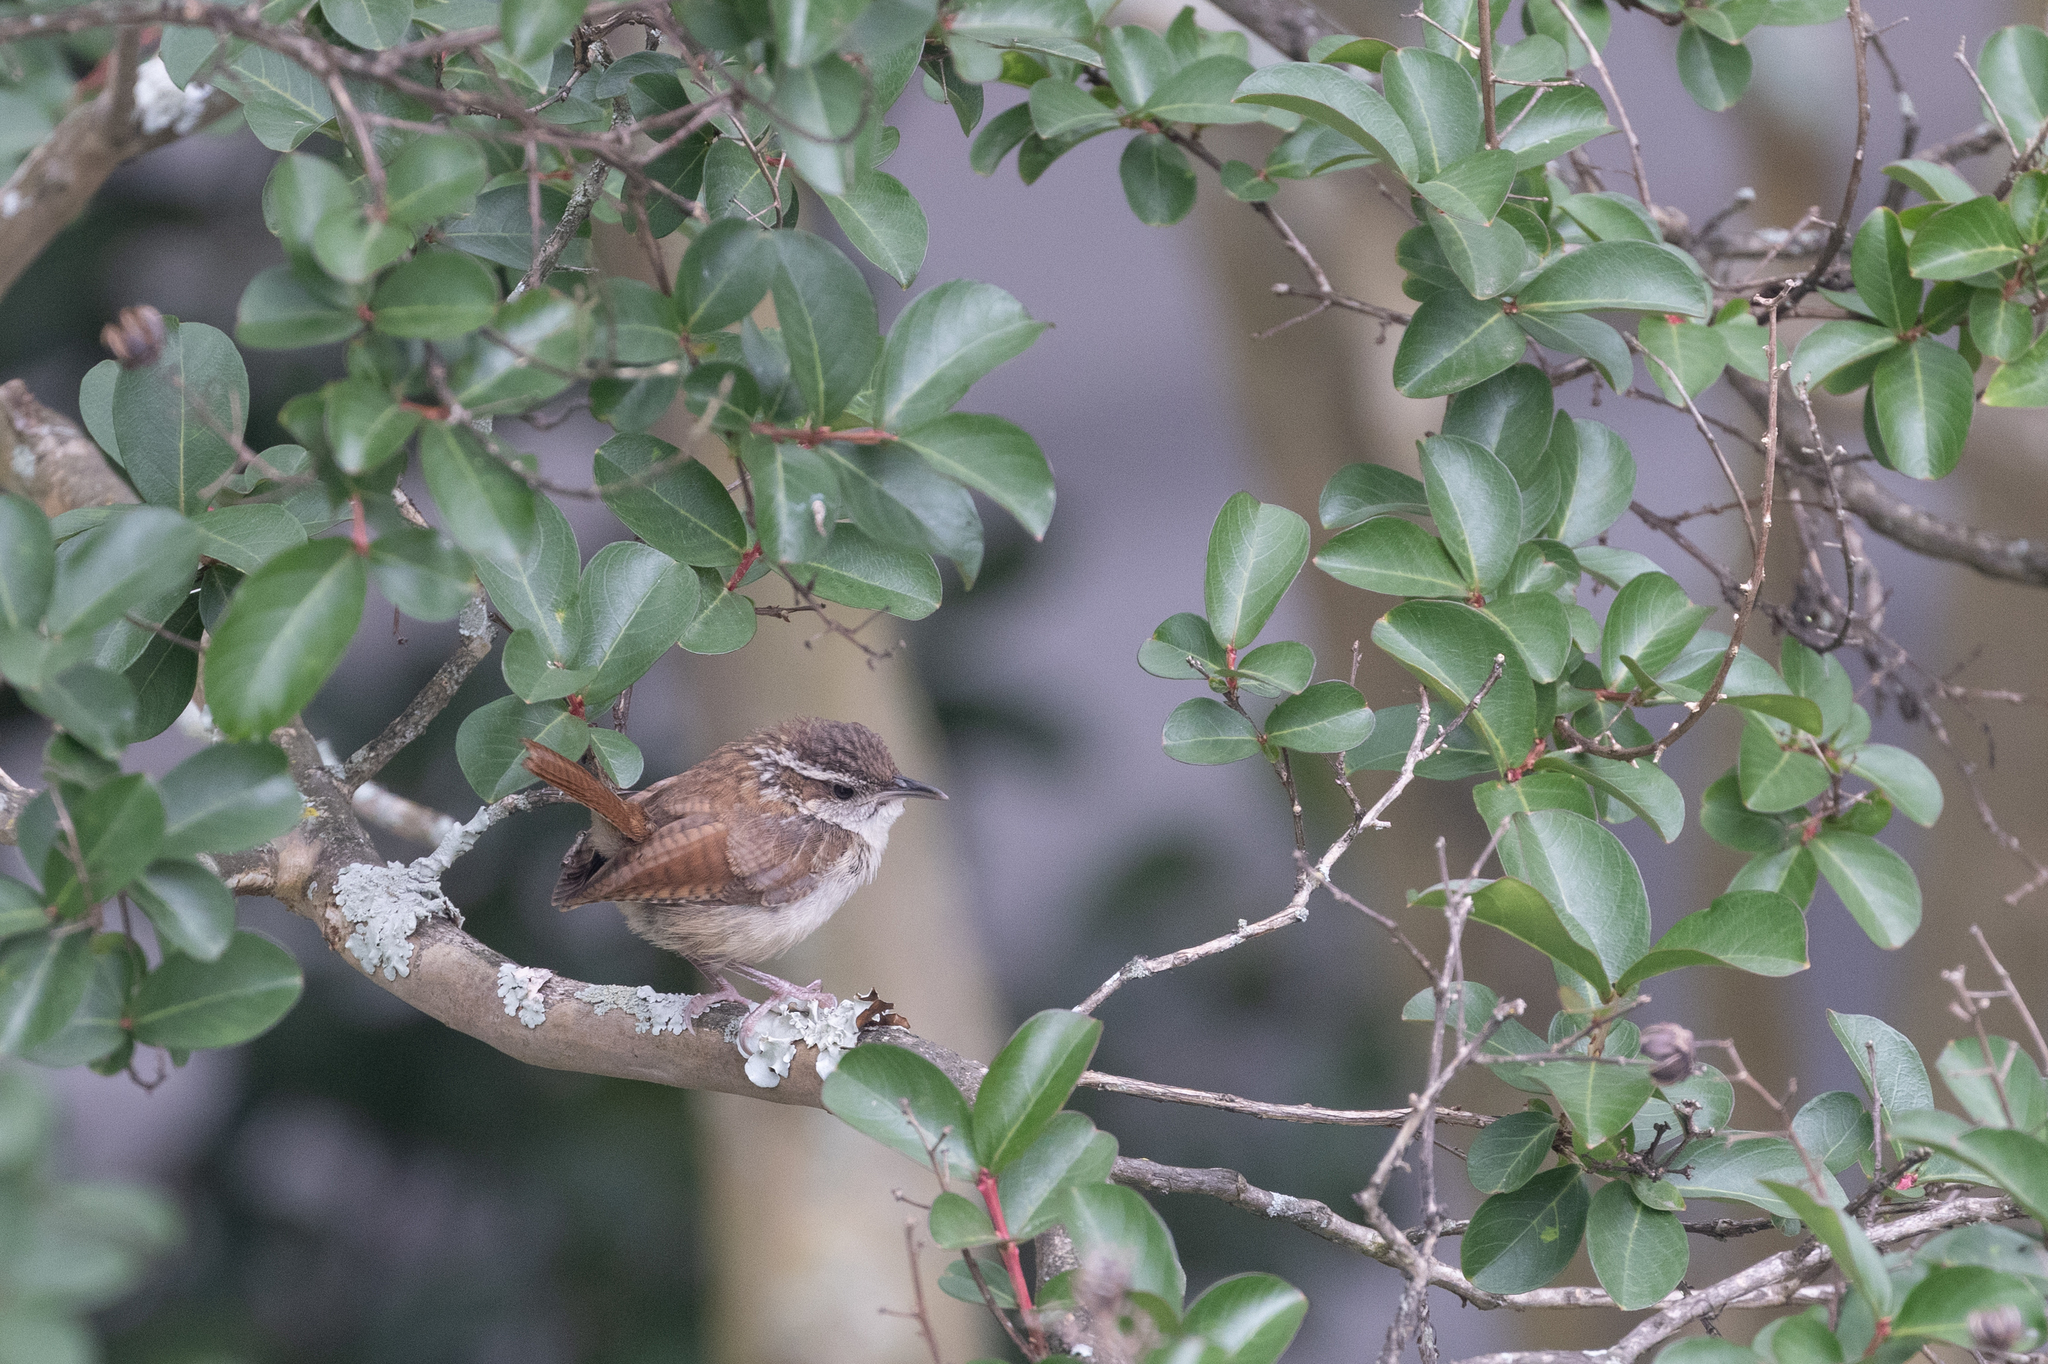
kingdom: Animalia
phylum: Chordata
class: Aves
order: Passeriformes
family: Troglodytidae
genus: Thryothorus
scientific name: Thryothorus ludovicianus
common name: Carolina wren
